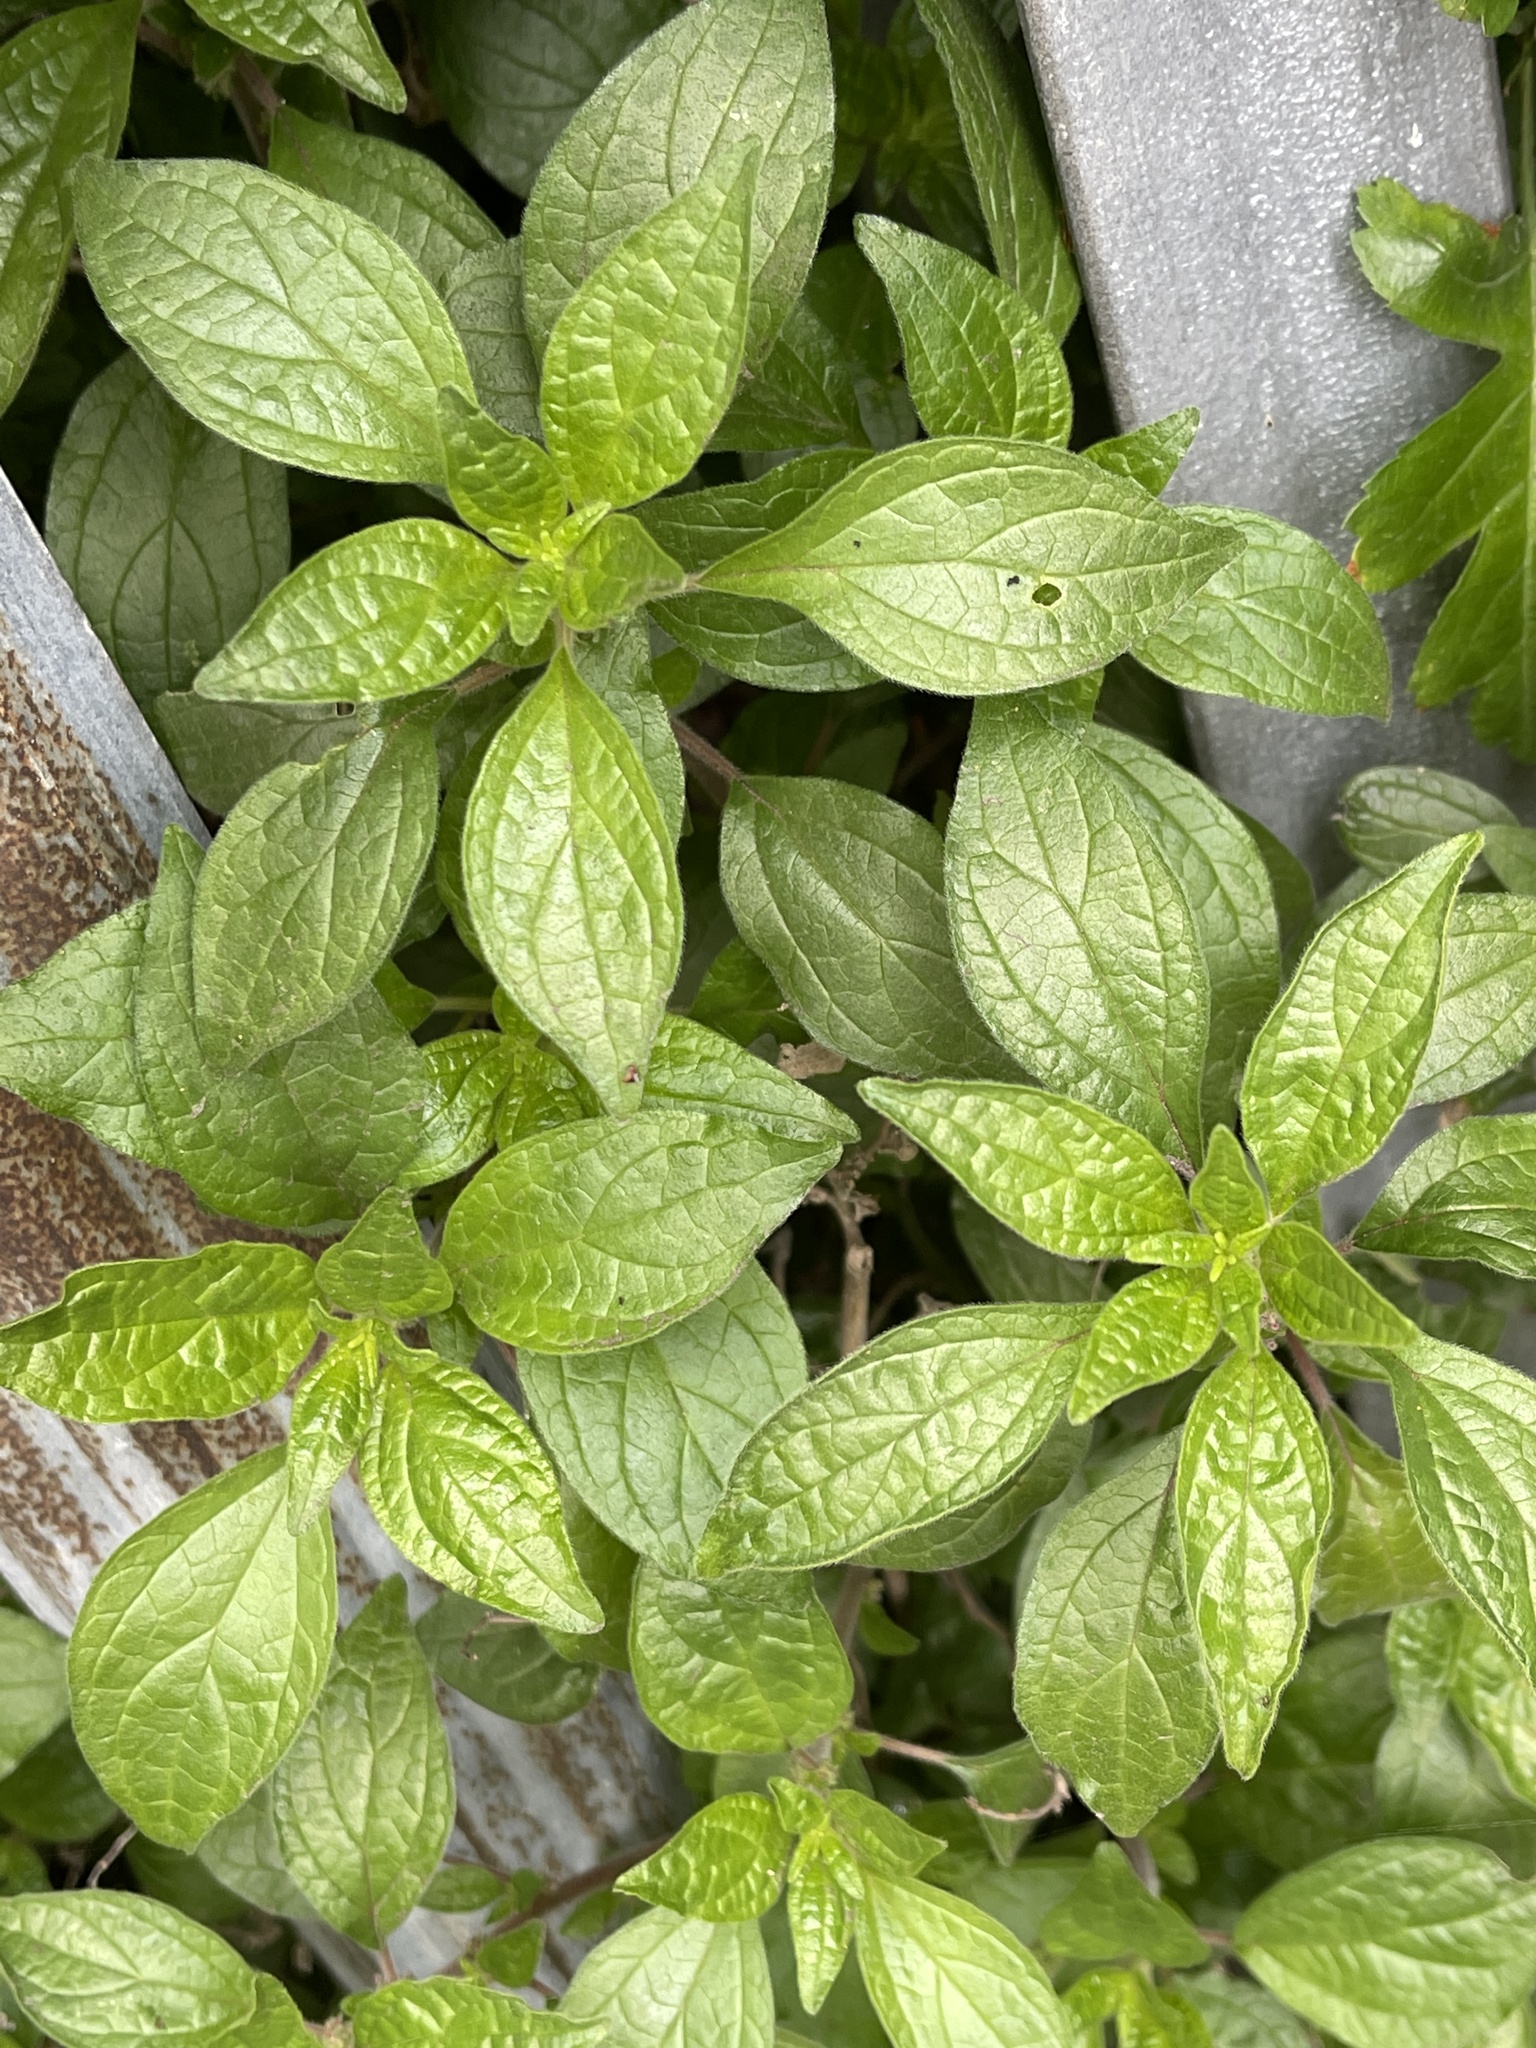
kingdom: Plantae
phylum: Tracheophyta
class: Magnoliopsida
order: Rosales
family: Urticaceae
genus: Parietaria
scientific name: Parietaria judaica
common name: Pellitory-of-the-wall
